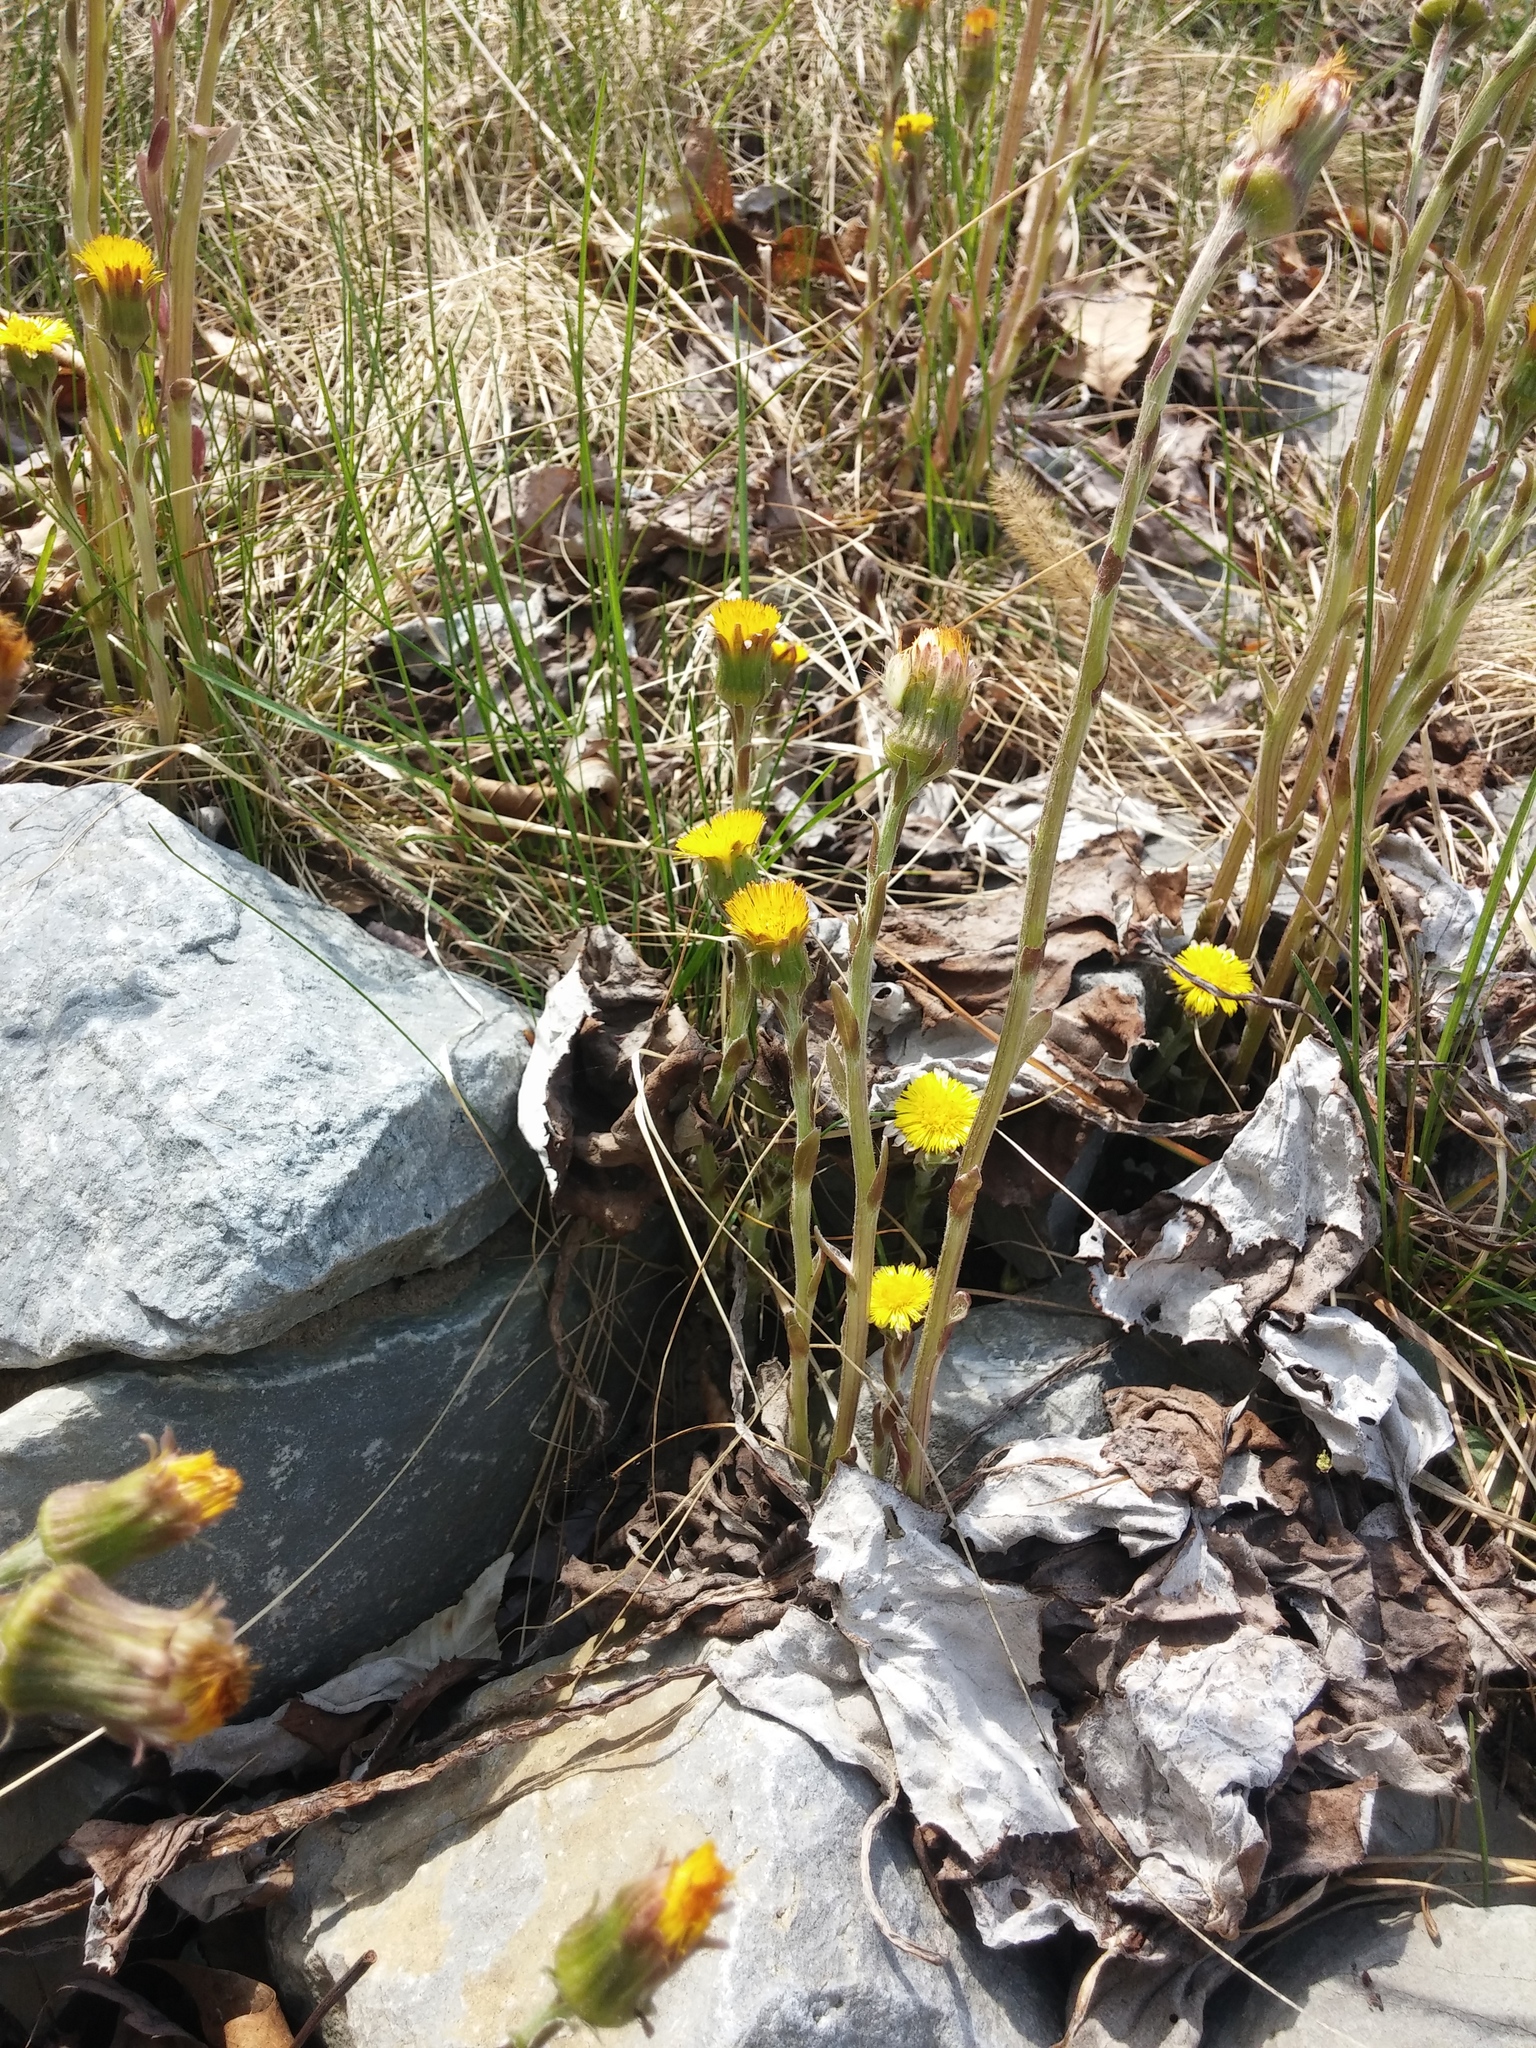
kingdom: Plantae
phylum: Tracheophyta
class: Magnoliopsida
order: Asterales
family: Asteraceae
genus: Tussilago
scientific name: Tussilago farfara
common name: Coltsfoot
